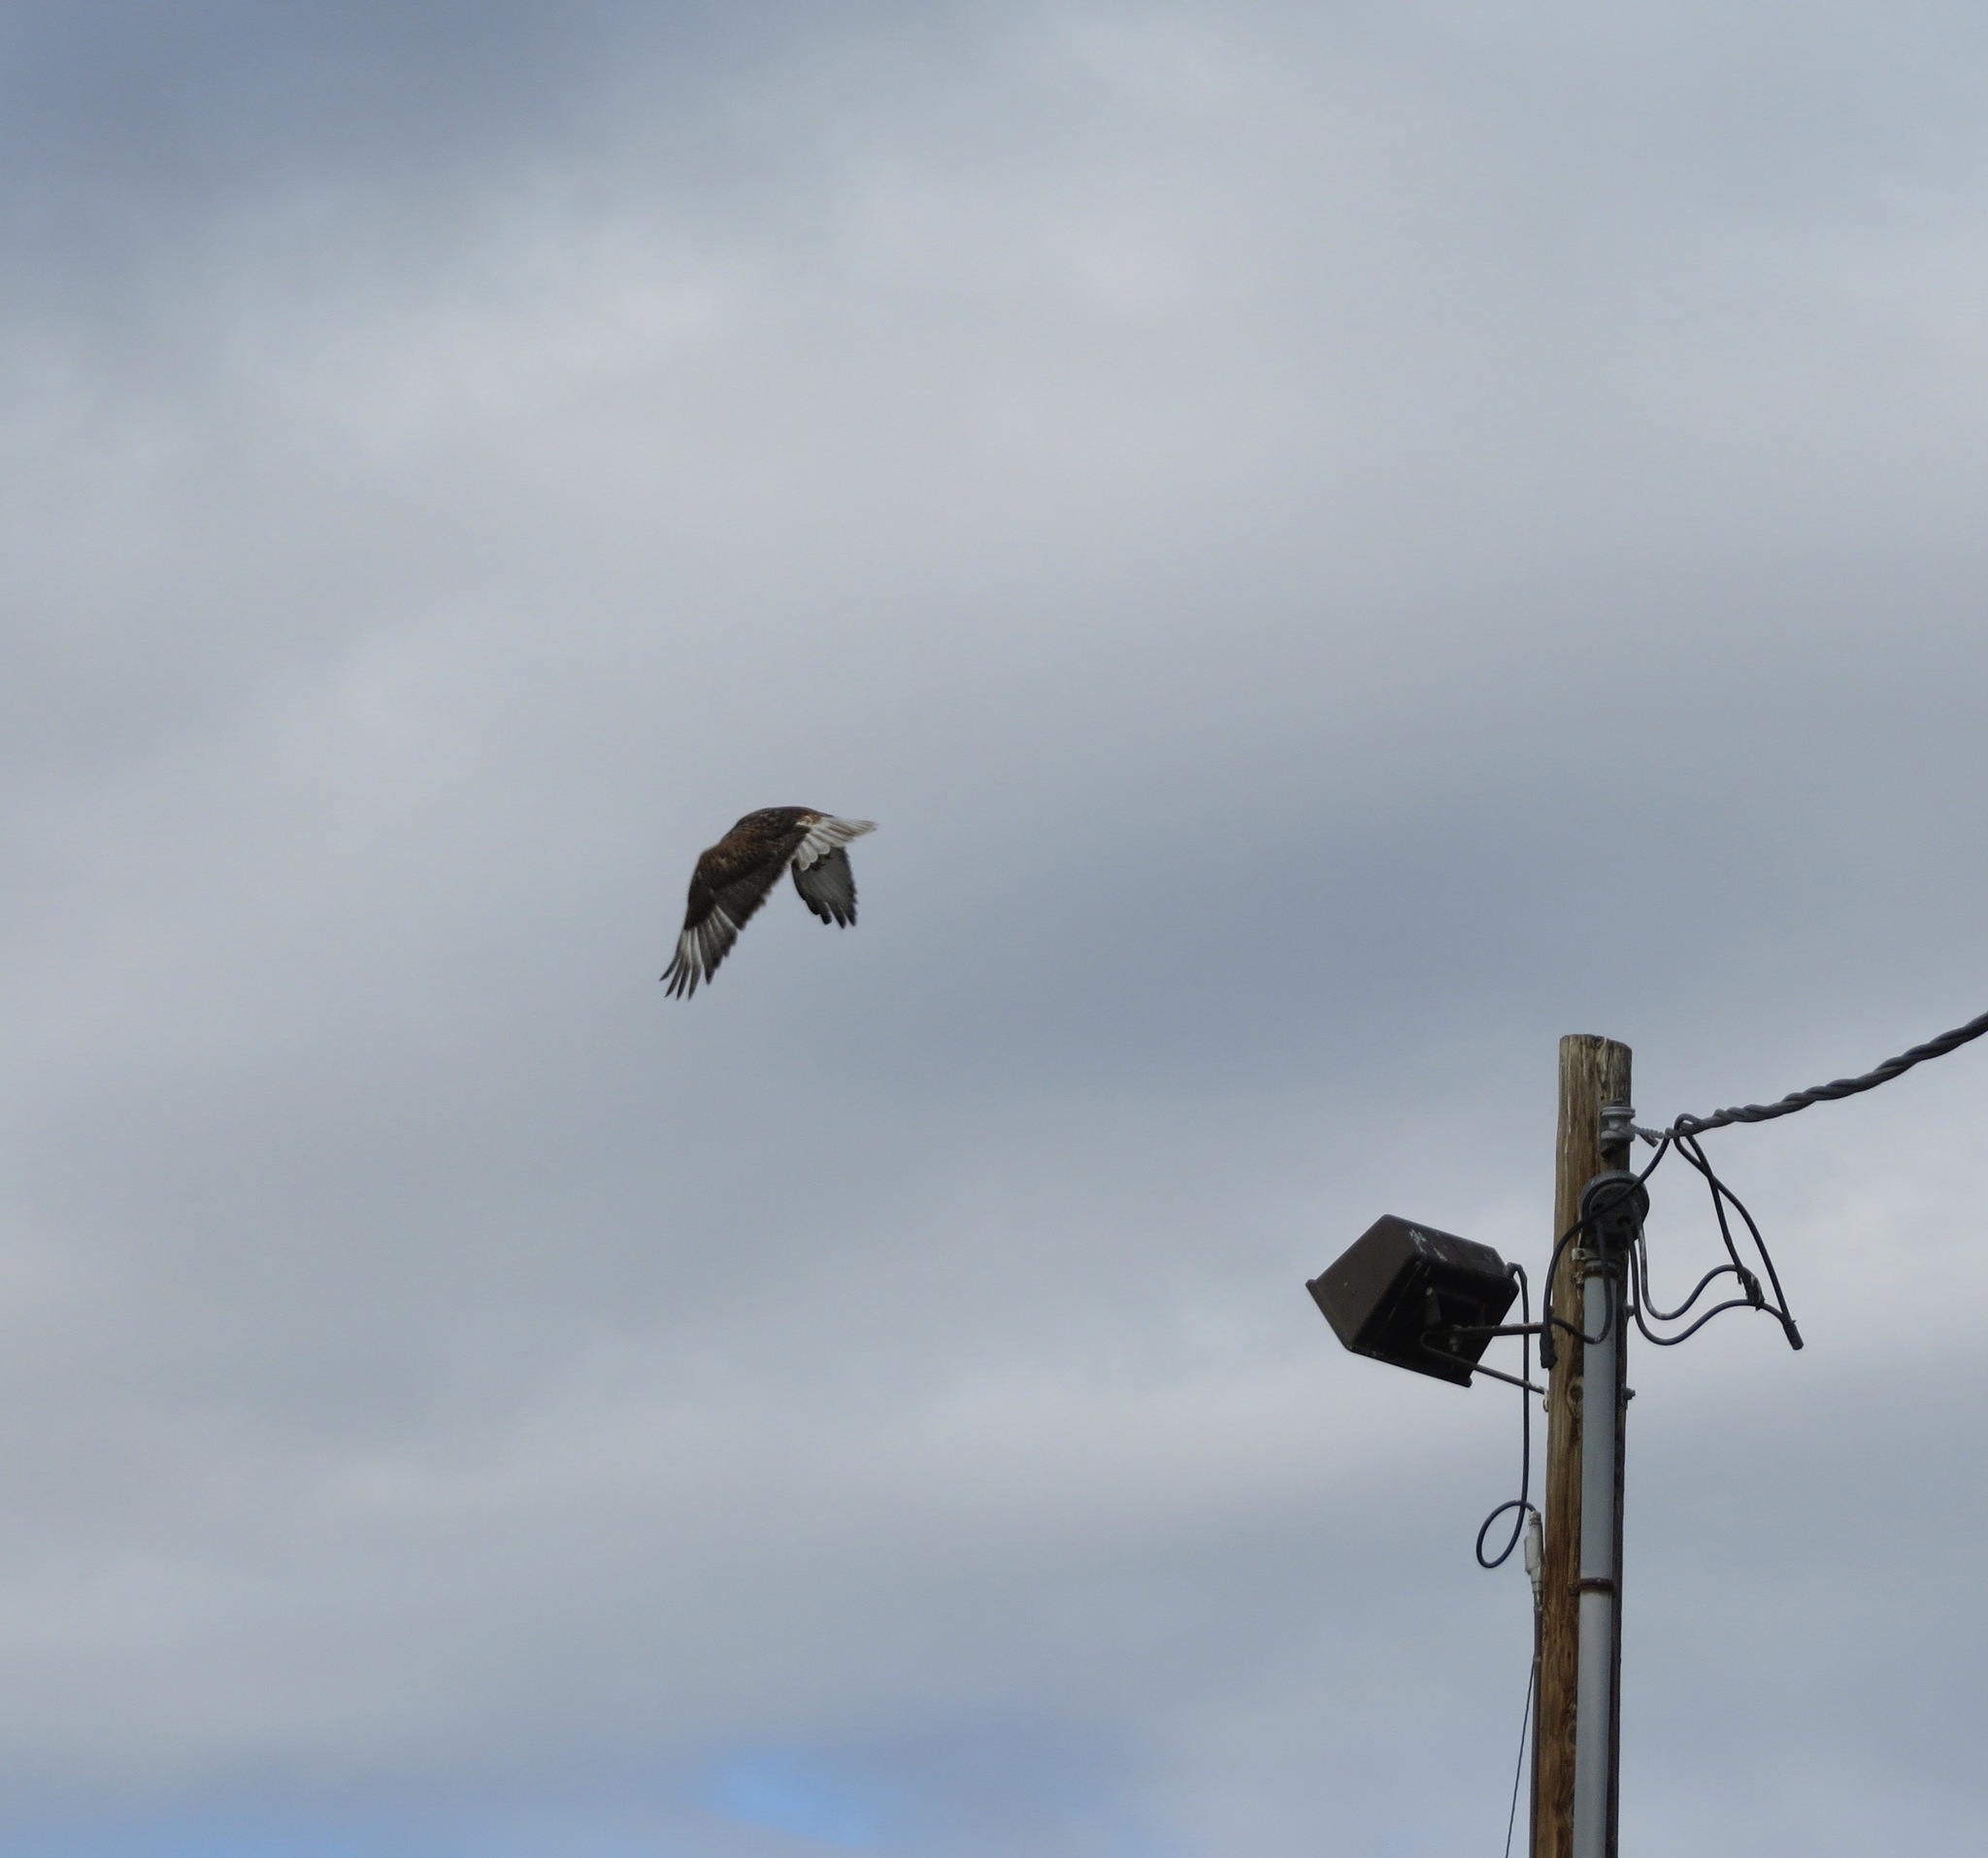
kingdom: Animalia
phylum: Chordata
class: Aves
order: Accipitriformes
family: Accipitridae
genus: Buteo
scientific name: Buteo regalis
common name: Ferruginous hawk
